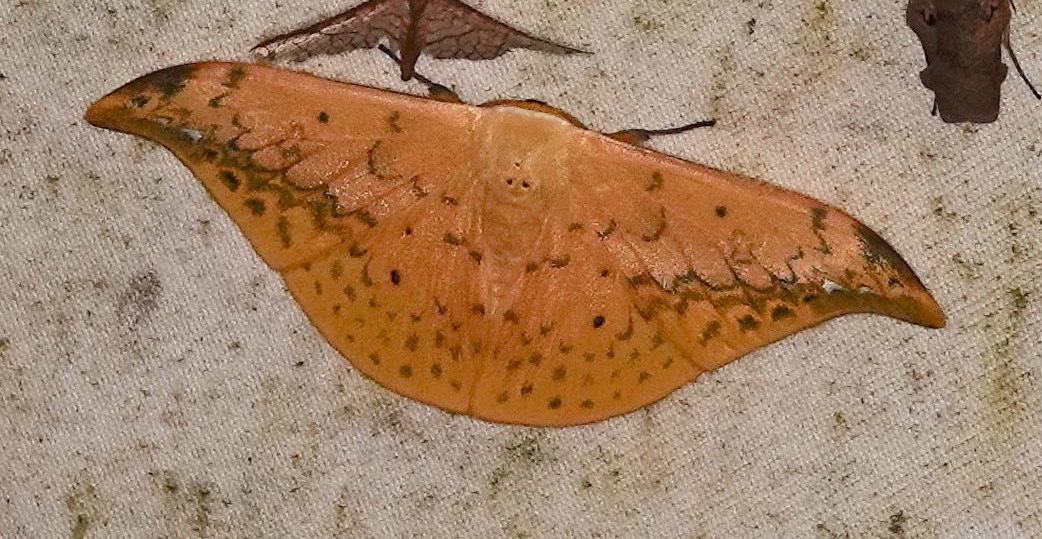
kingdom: Animalia
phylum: Arthropoda
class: Insecta
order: Lepidoptera
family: Drepanidae
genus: Tridrepana
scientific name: Tridrepana flava
